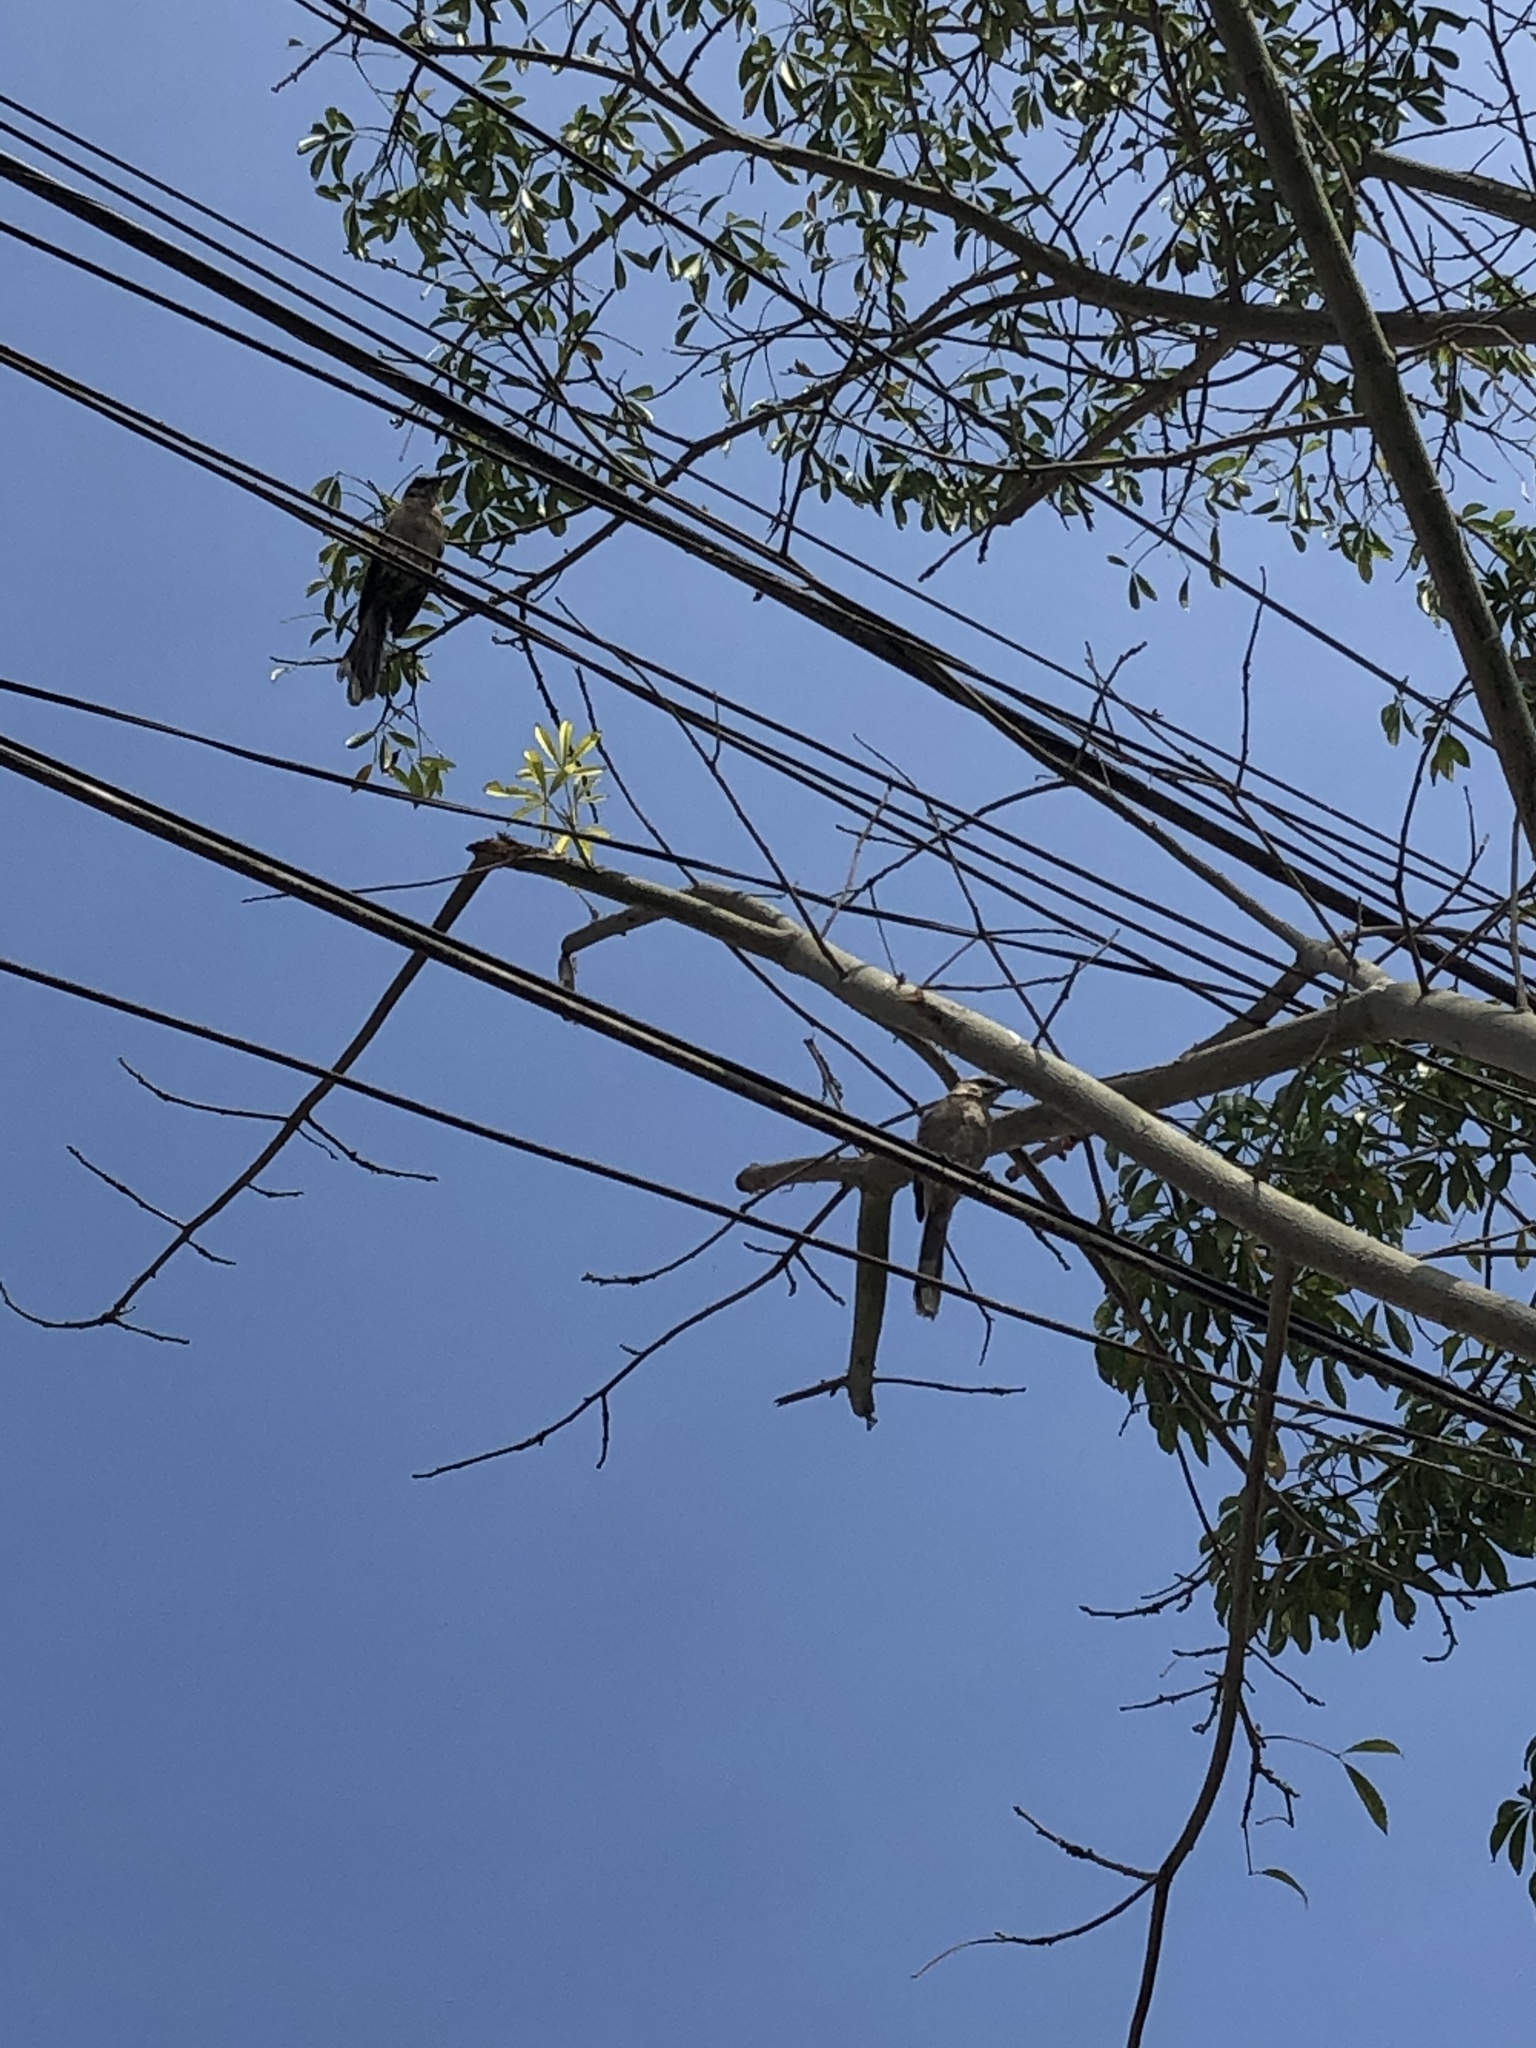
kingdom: Animalia
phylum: Chordata
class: Aves
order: Passeriformes
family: Mimidae
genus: Mimus
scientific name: Mimus longicaudatus
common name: Long-tailed mockingbird
